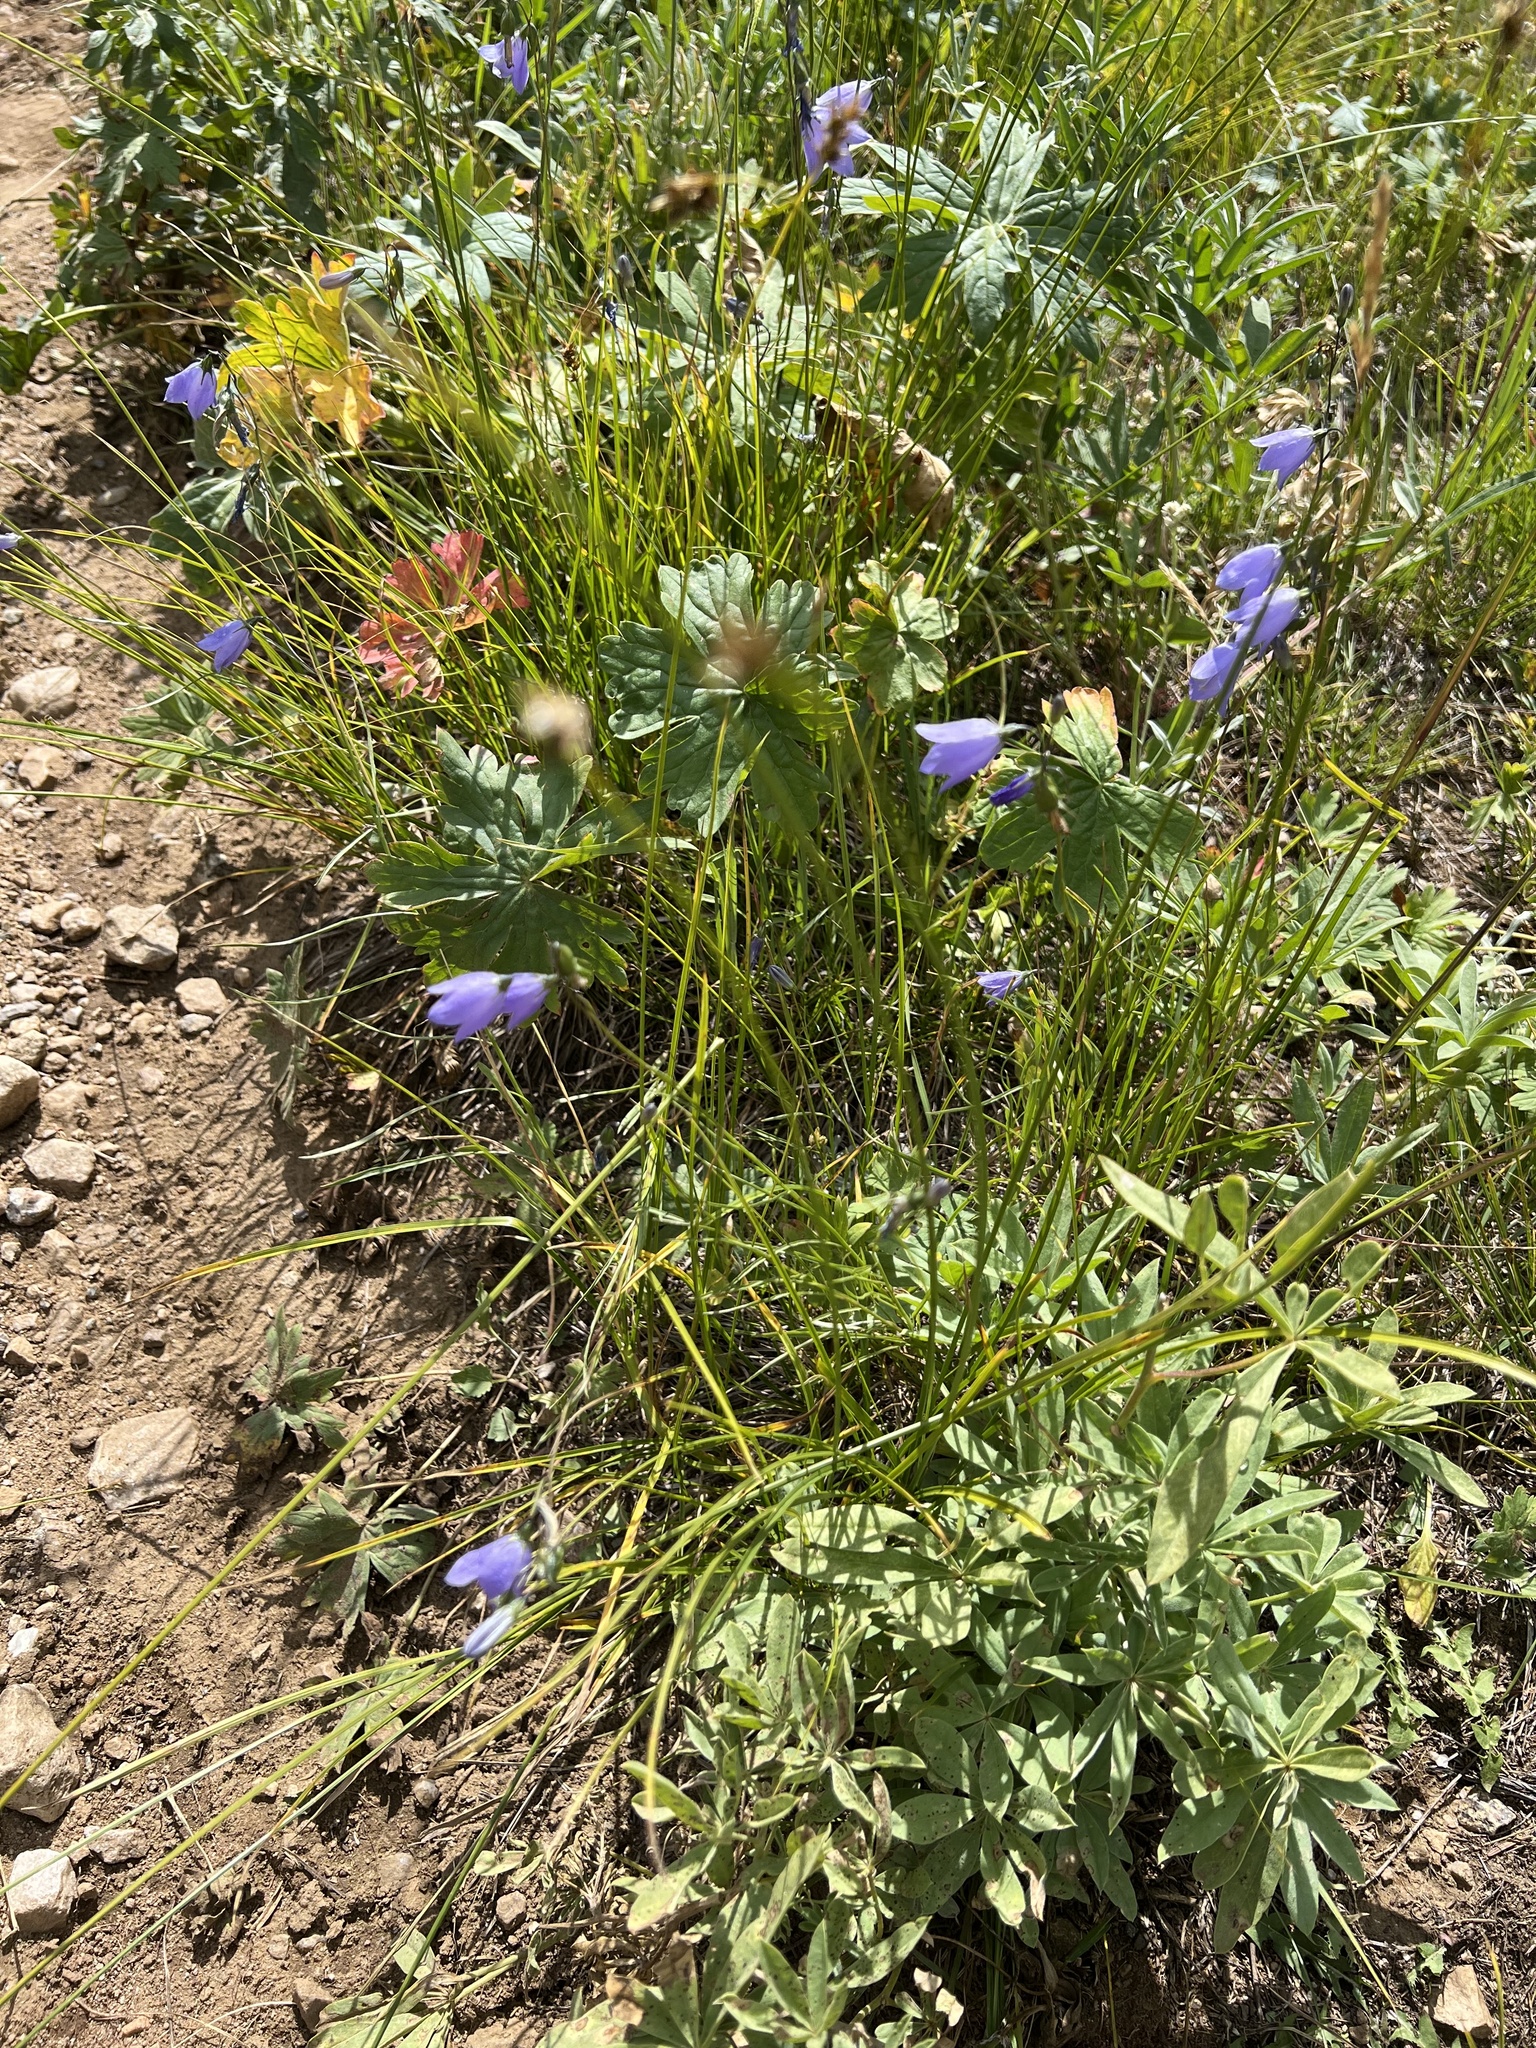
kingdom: Plantae
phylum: Tracheophyta
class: Magnoliopsida
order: Asterales
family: Campanulaceae
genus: Campanula
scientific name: Campanula
